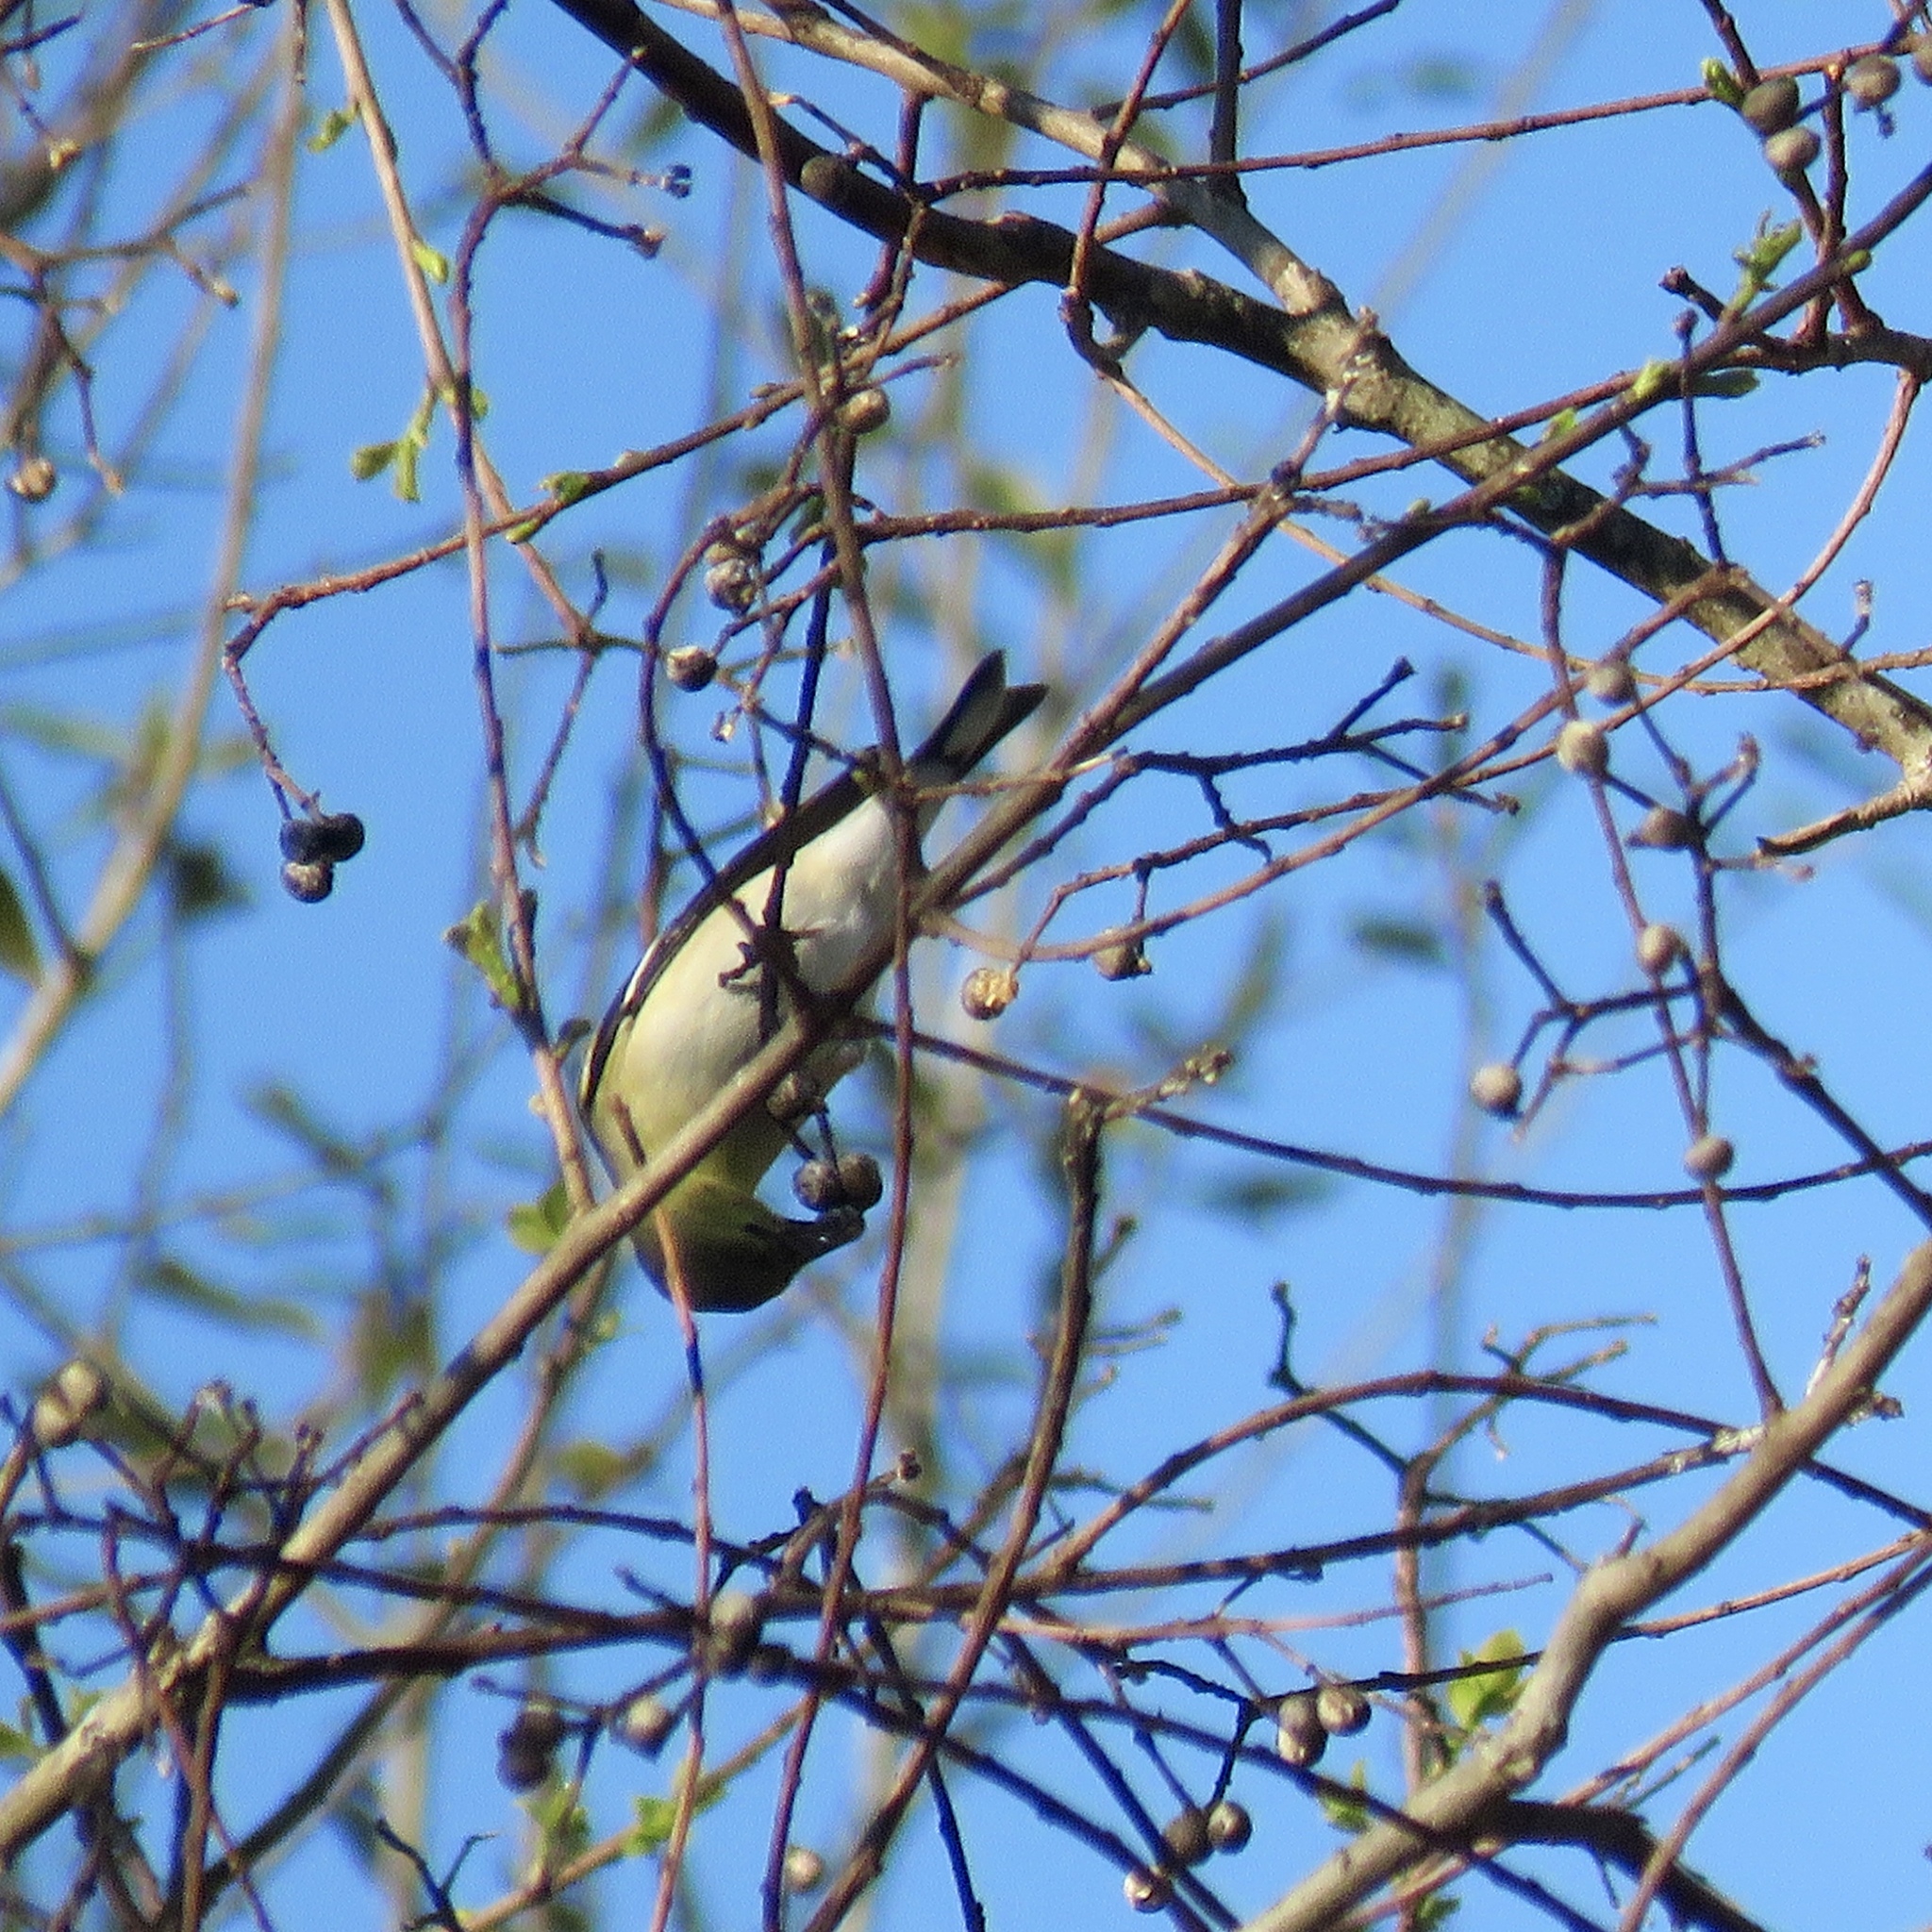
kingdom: Animalia
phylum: Chordata
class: Aves
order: Passeriformes
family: Fringillidae
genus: Spinus
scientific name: Spinus tristis
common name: American goldfinch
